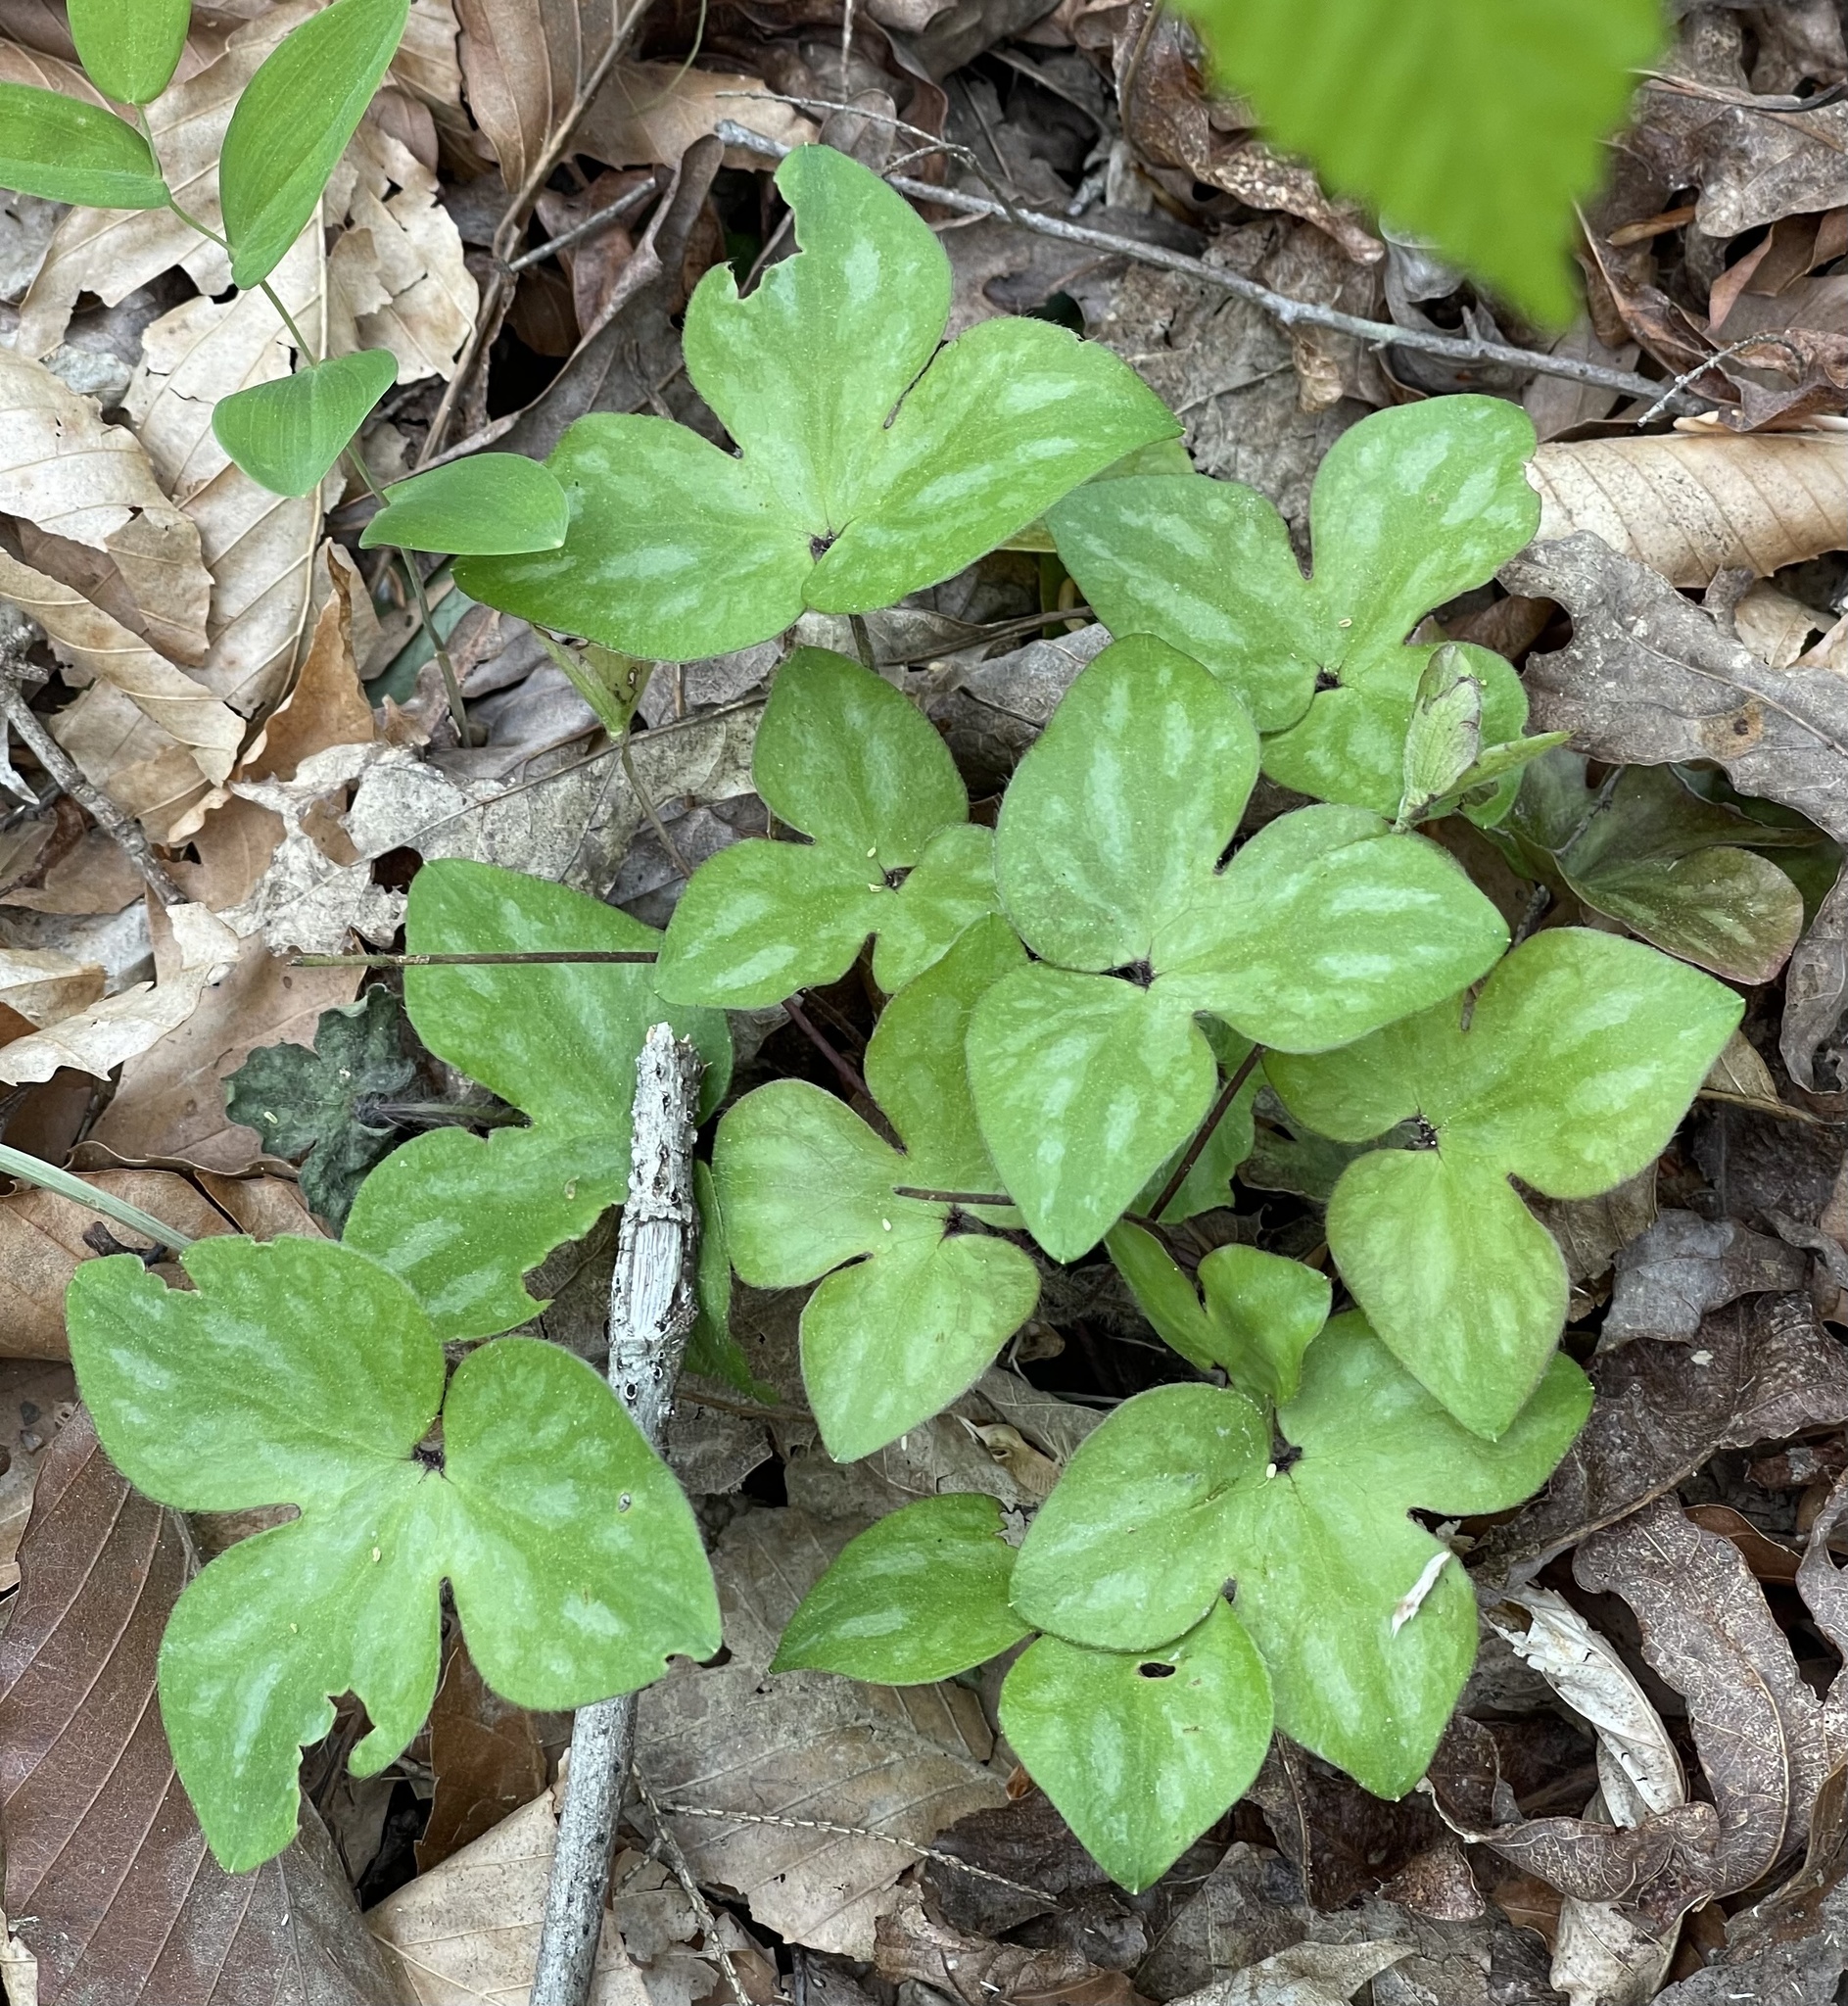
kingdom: Plantae
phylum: Tracheophyta
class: Magnoliopsida
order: Ranunculales
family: Ranunculaceae
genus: Hepatica
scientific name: Hepatica acutiloba
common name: Sharp-lobed hepatica
